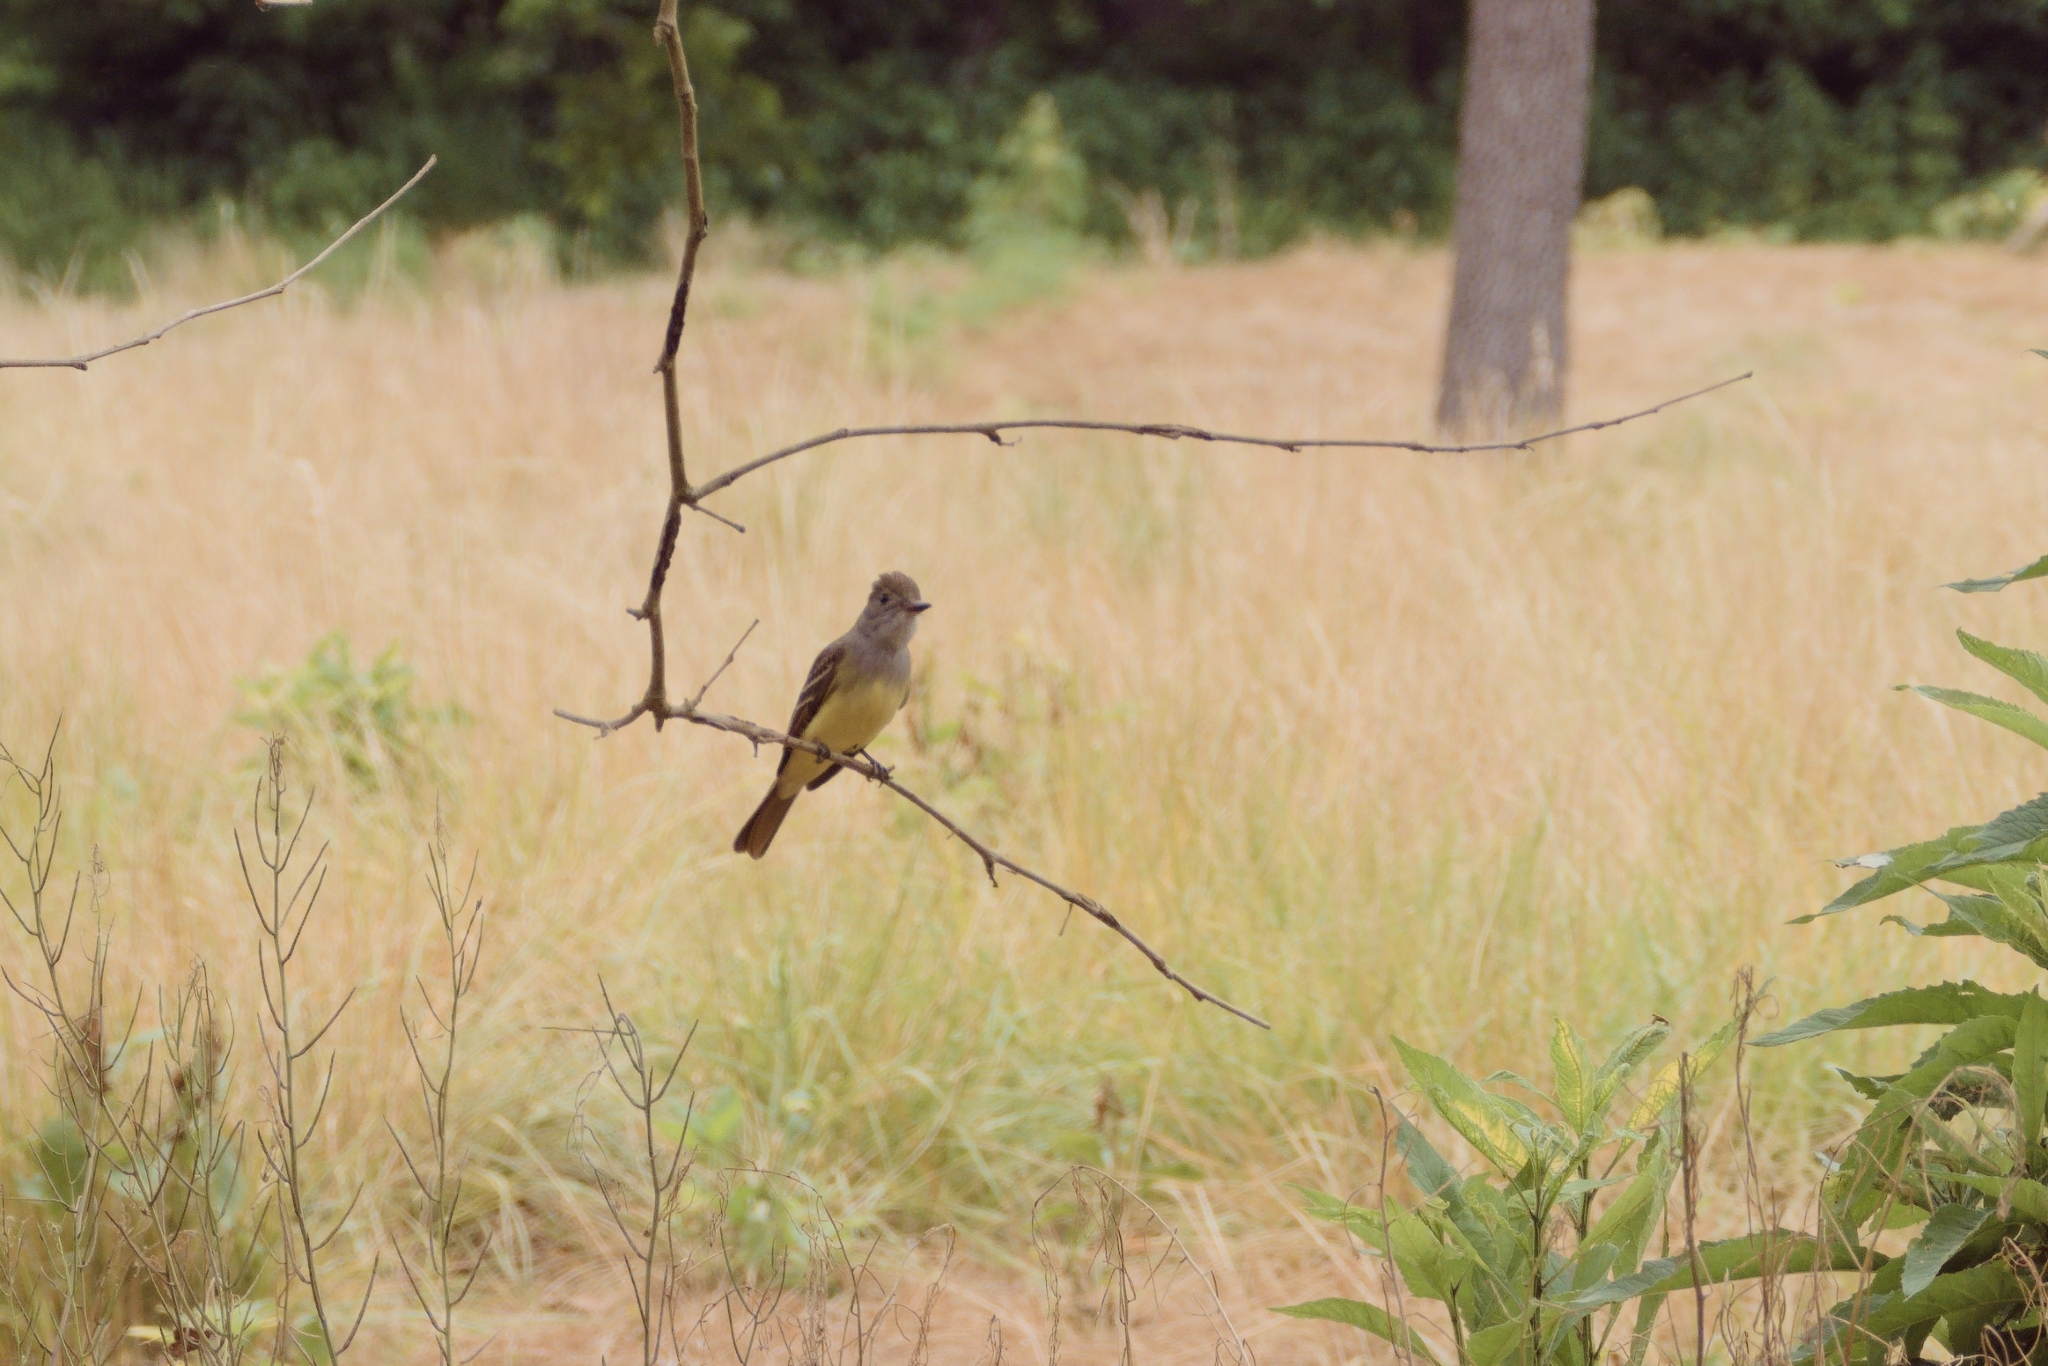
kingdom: Animalia
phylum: Chordata
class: Aves
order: Passeriformes
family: Tyrannidae
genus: Myiarchus
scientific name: Myiarchus crinitus
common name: Great crested flycatcher
